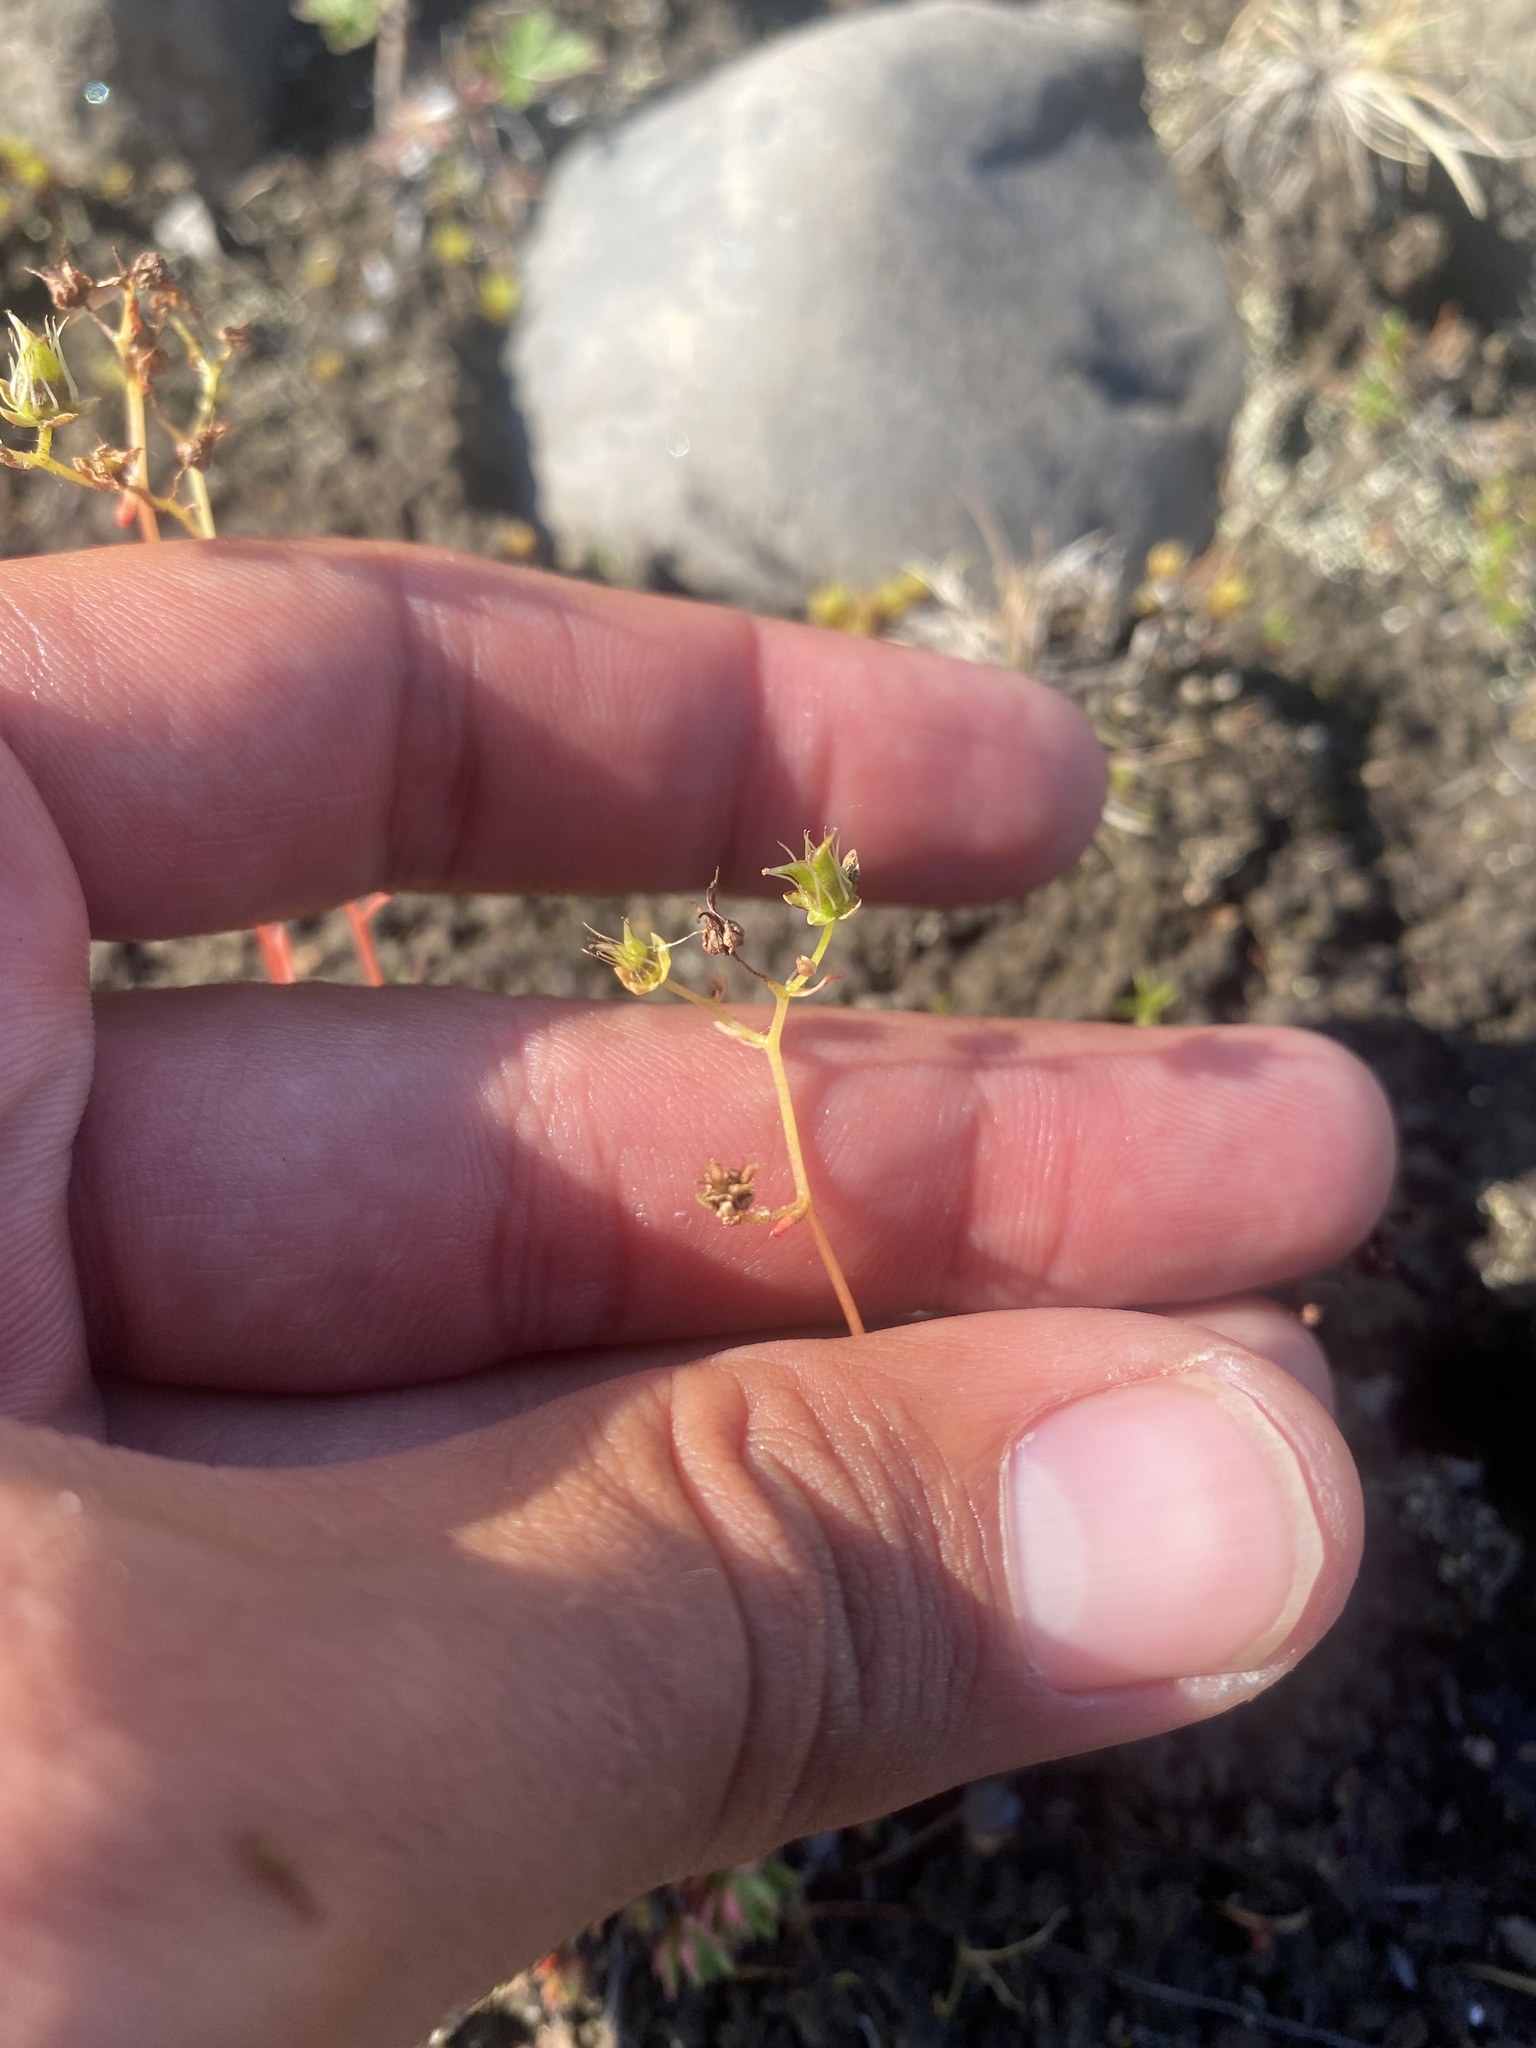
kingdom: Plantae
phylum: Tracheophyta
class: Magnoliopsida
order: Saxifragales
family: Saxifragaceae
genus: Saxifraga
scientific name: Saxifraga
